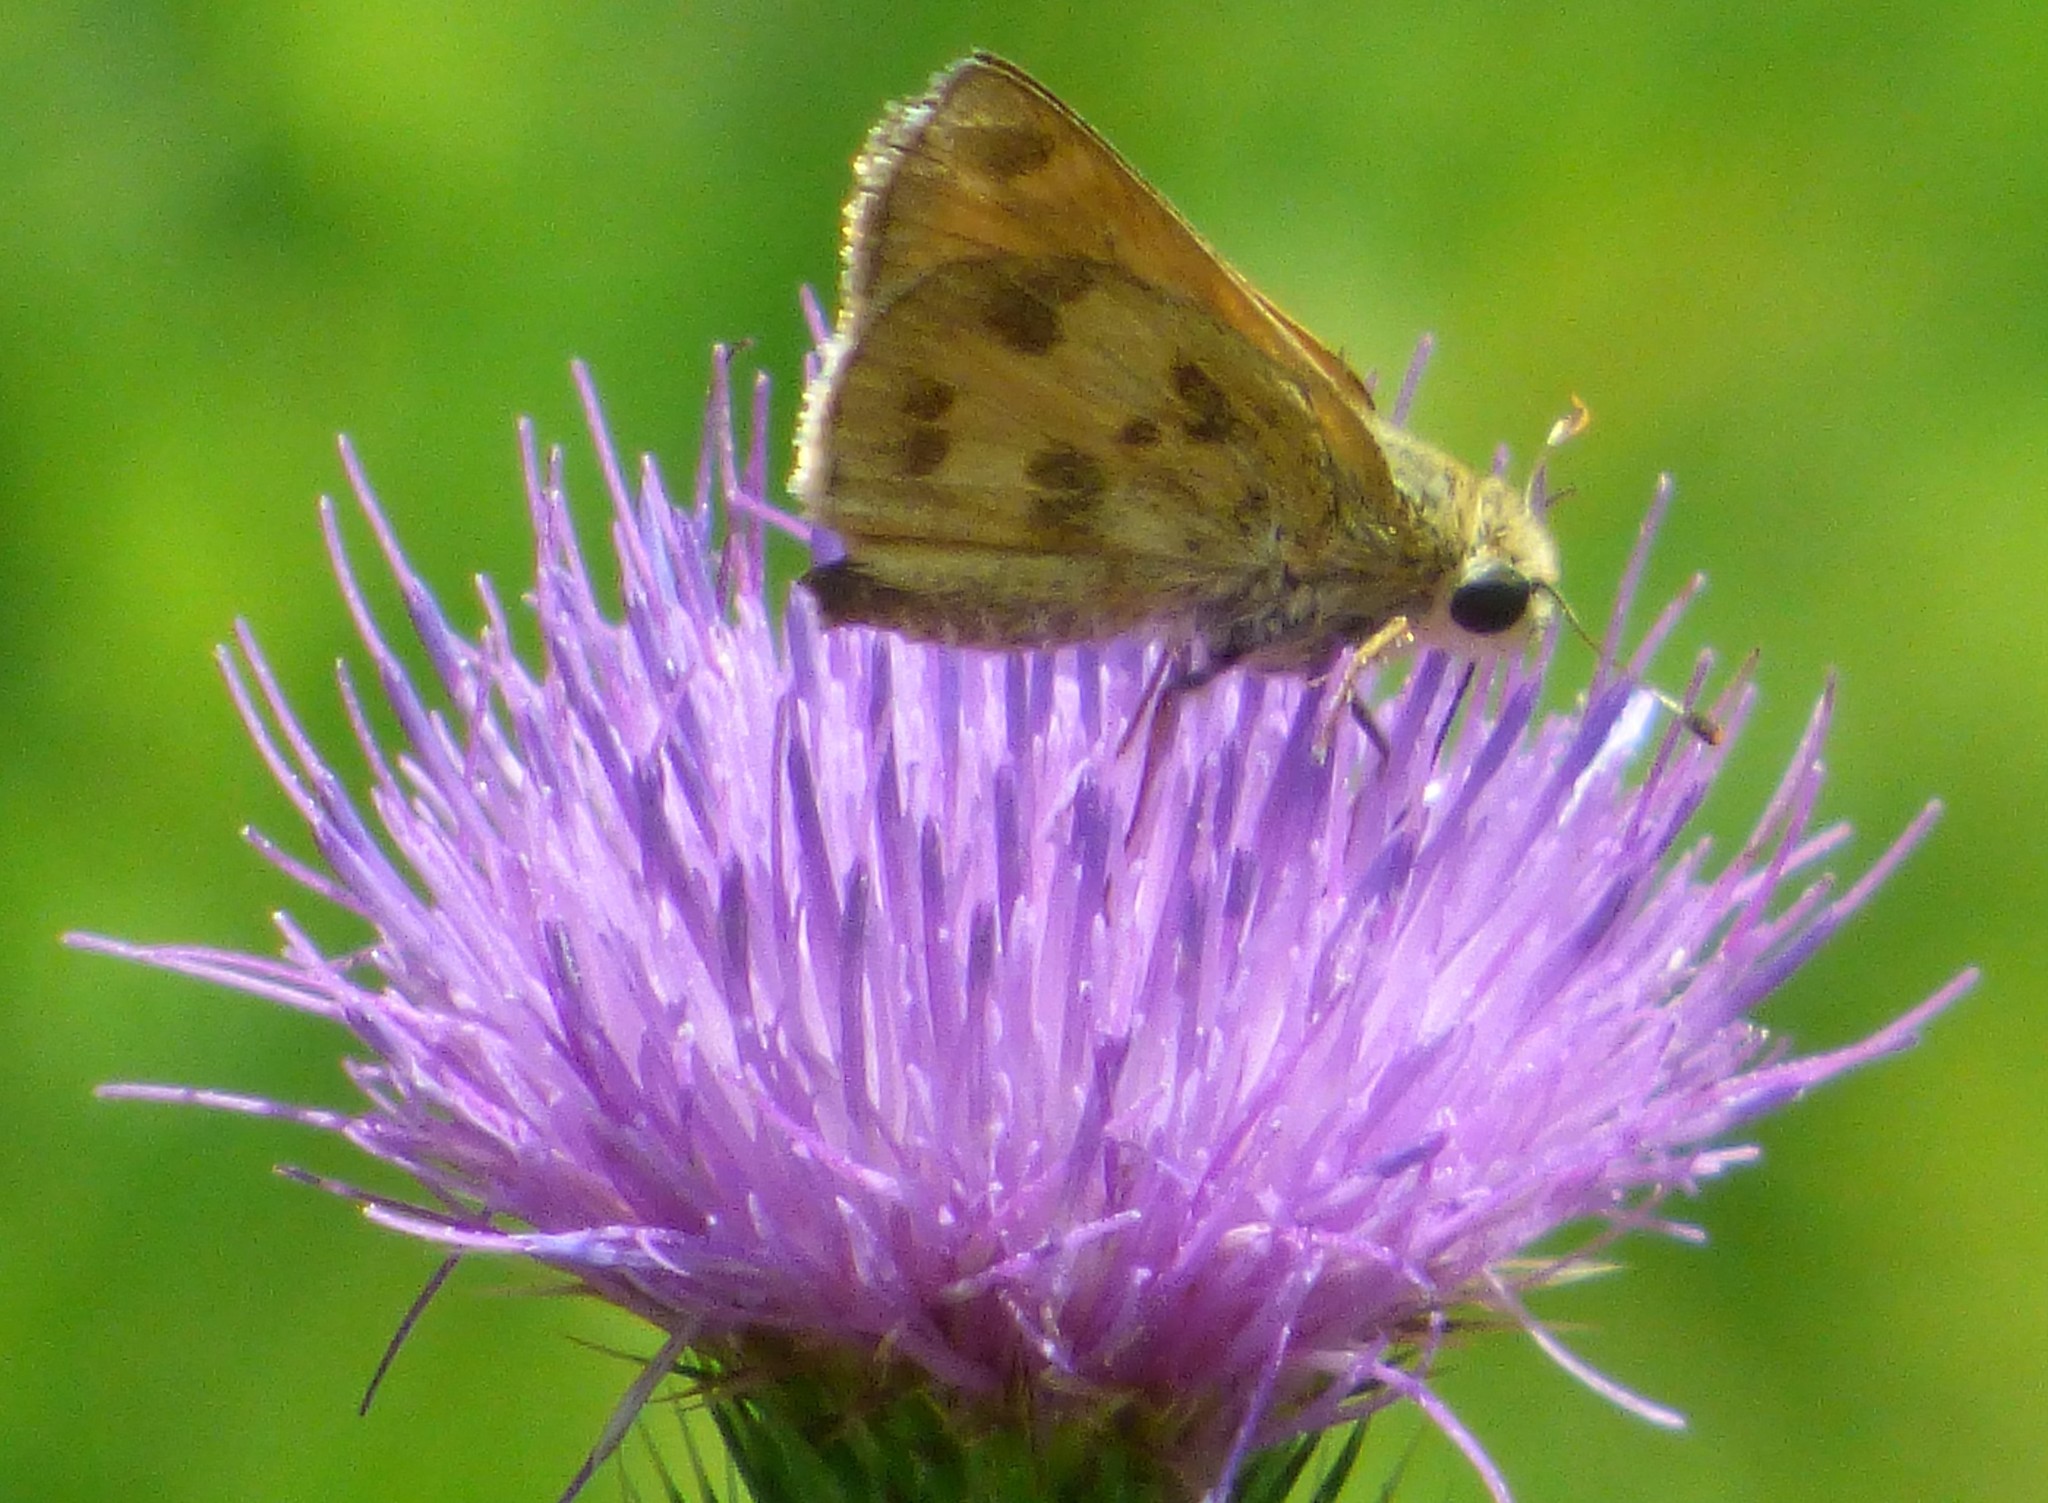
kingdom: Animalia
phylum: Arthropoda
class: Insecta
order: Lepidoptera
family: Hesperiidae
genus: Polites
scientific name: Polites vibex
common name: Whirlabout
